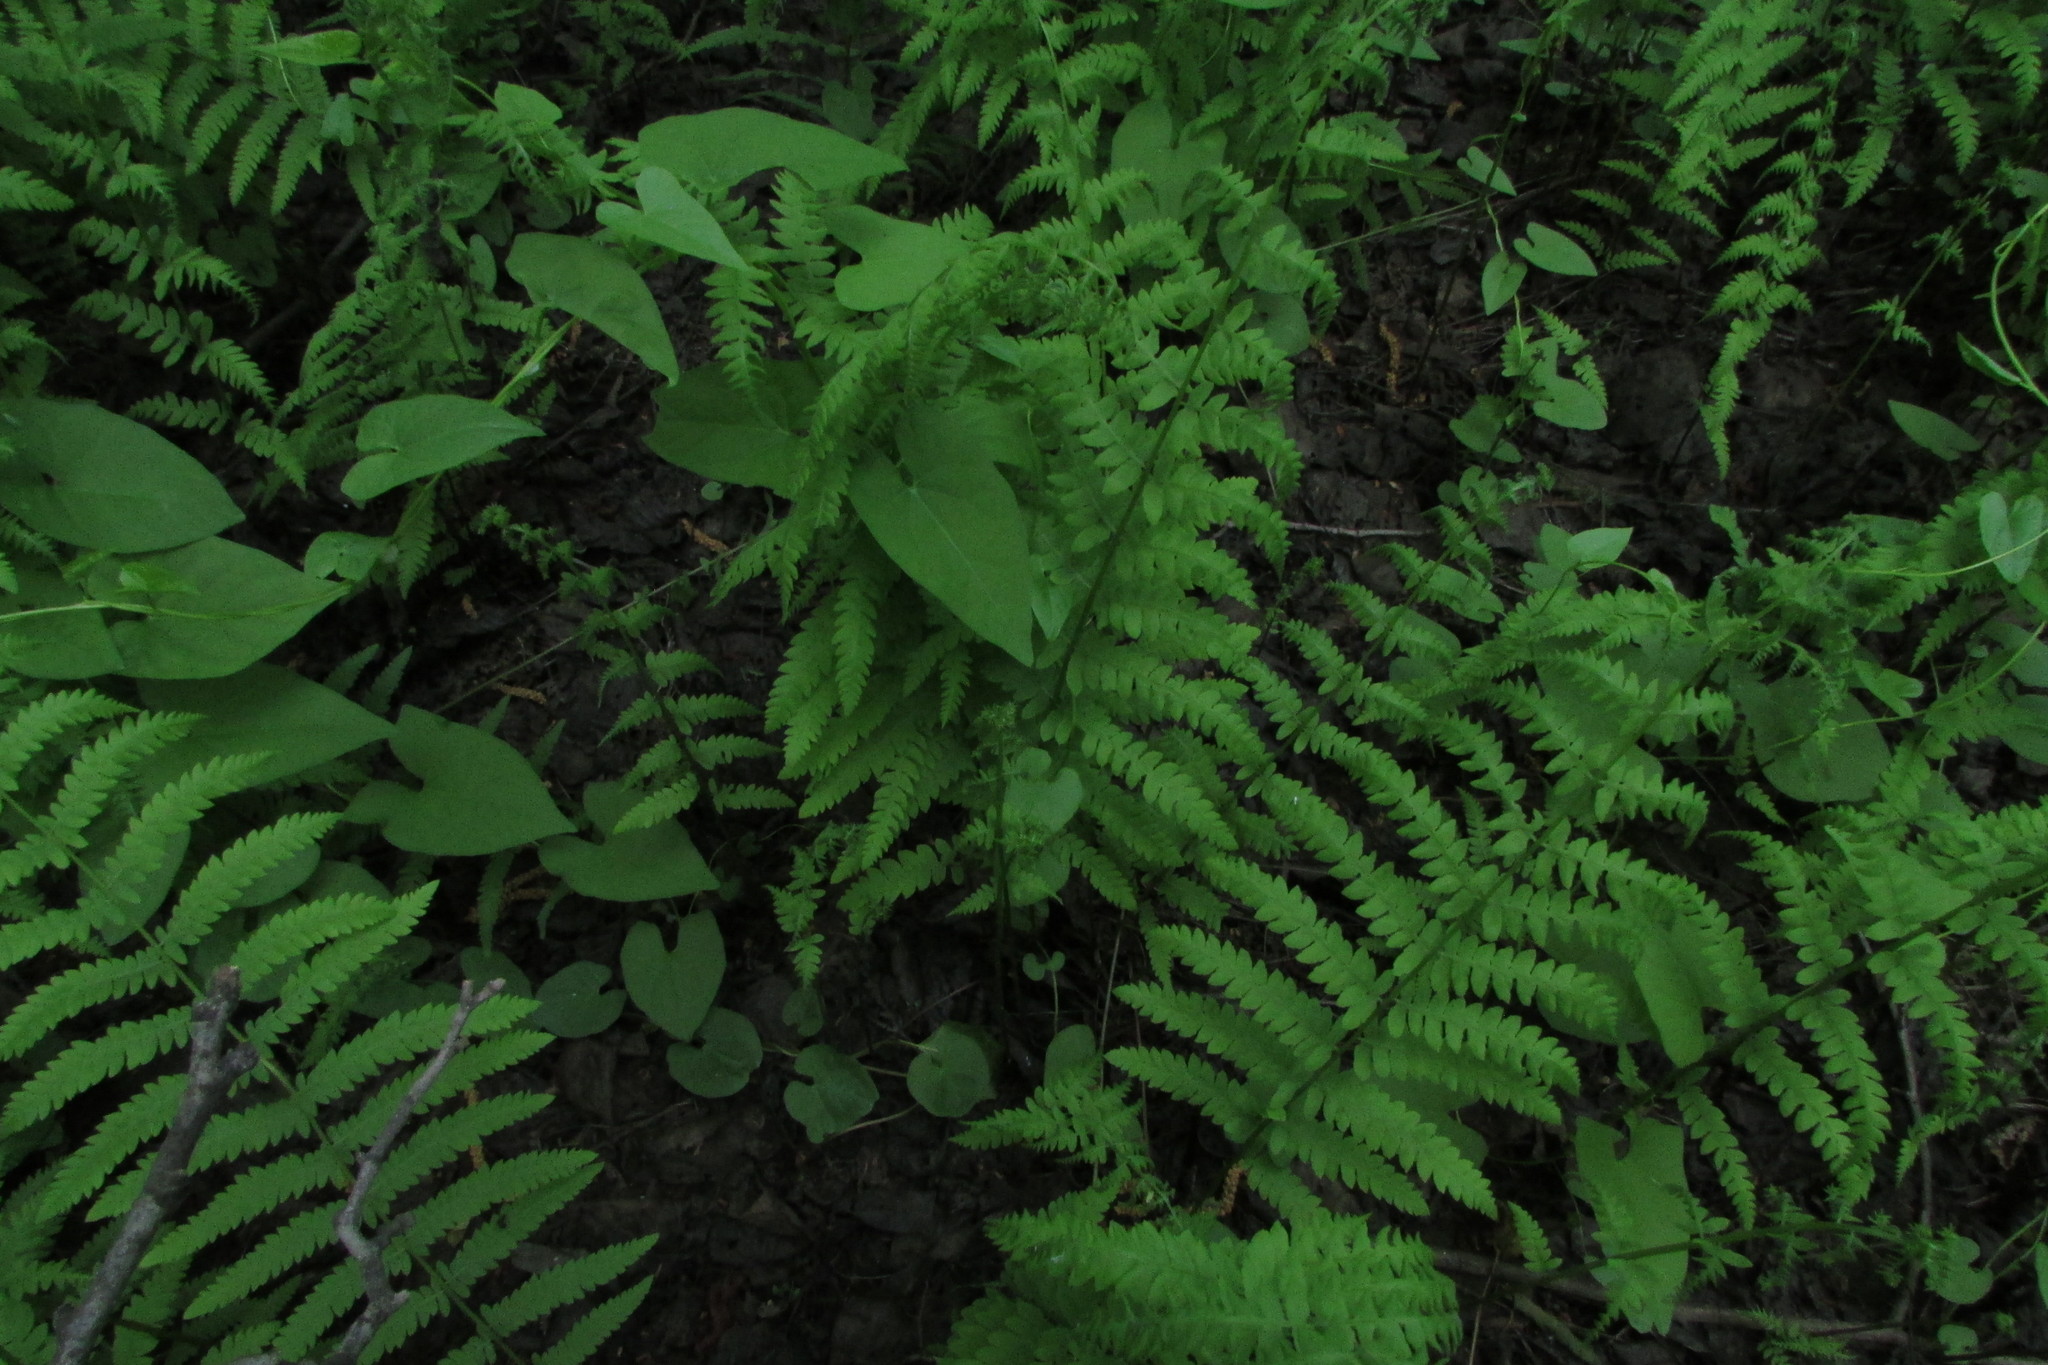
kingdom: Plantae
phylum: Tracheophyta
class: Polypodiopsida
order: Polypodiales
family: Thelypteridaceae
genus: Thelypteris
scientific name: Thelypteris palustris
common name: Marsh fern
